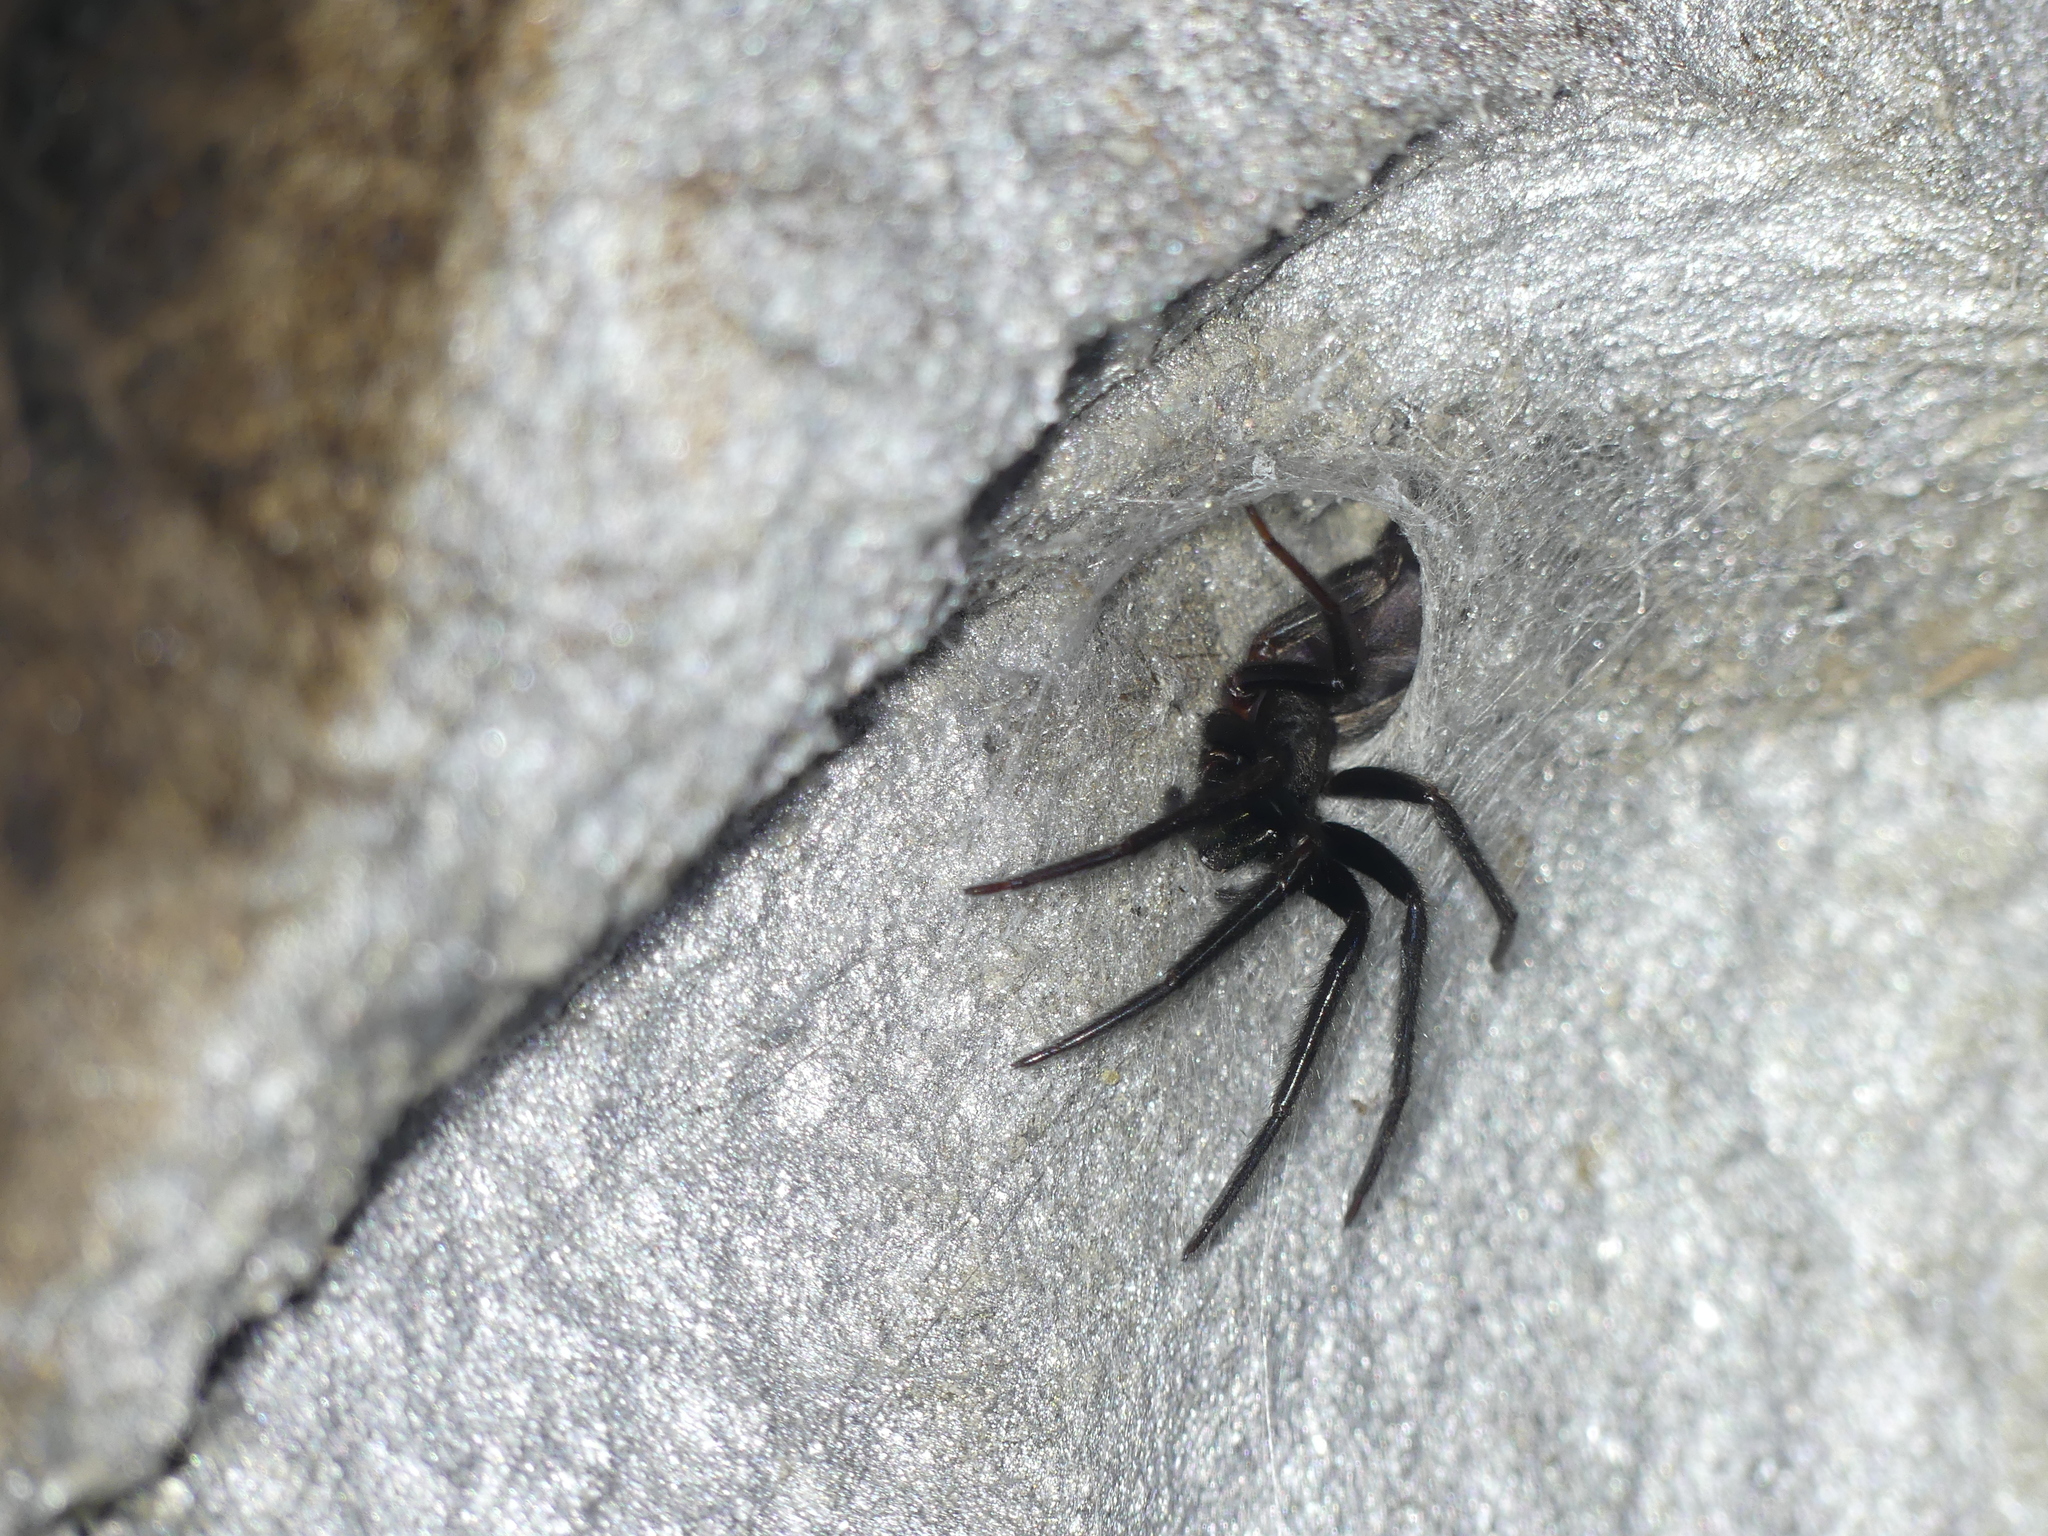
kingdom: Animalia
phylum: Arthropoda
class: Arachnida
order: Araneae
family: Segestriidae
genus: Segestria
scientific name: Segestria florentina
